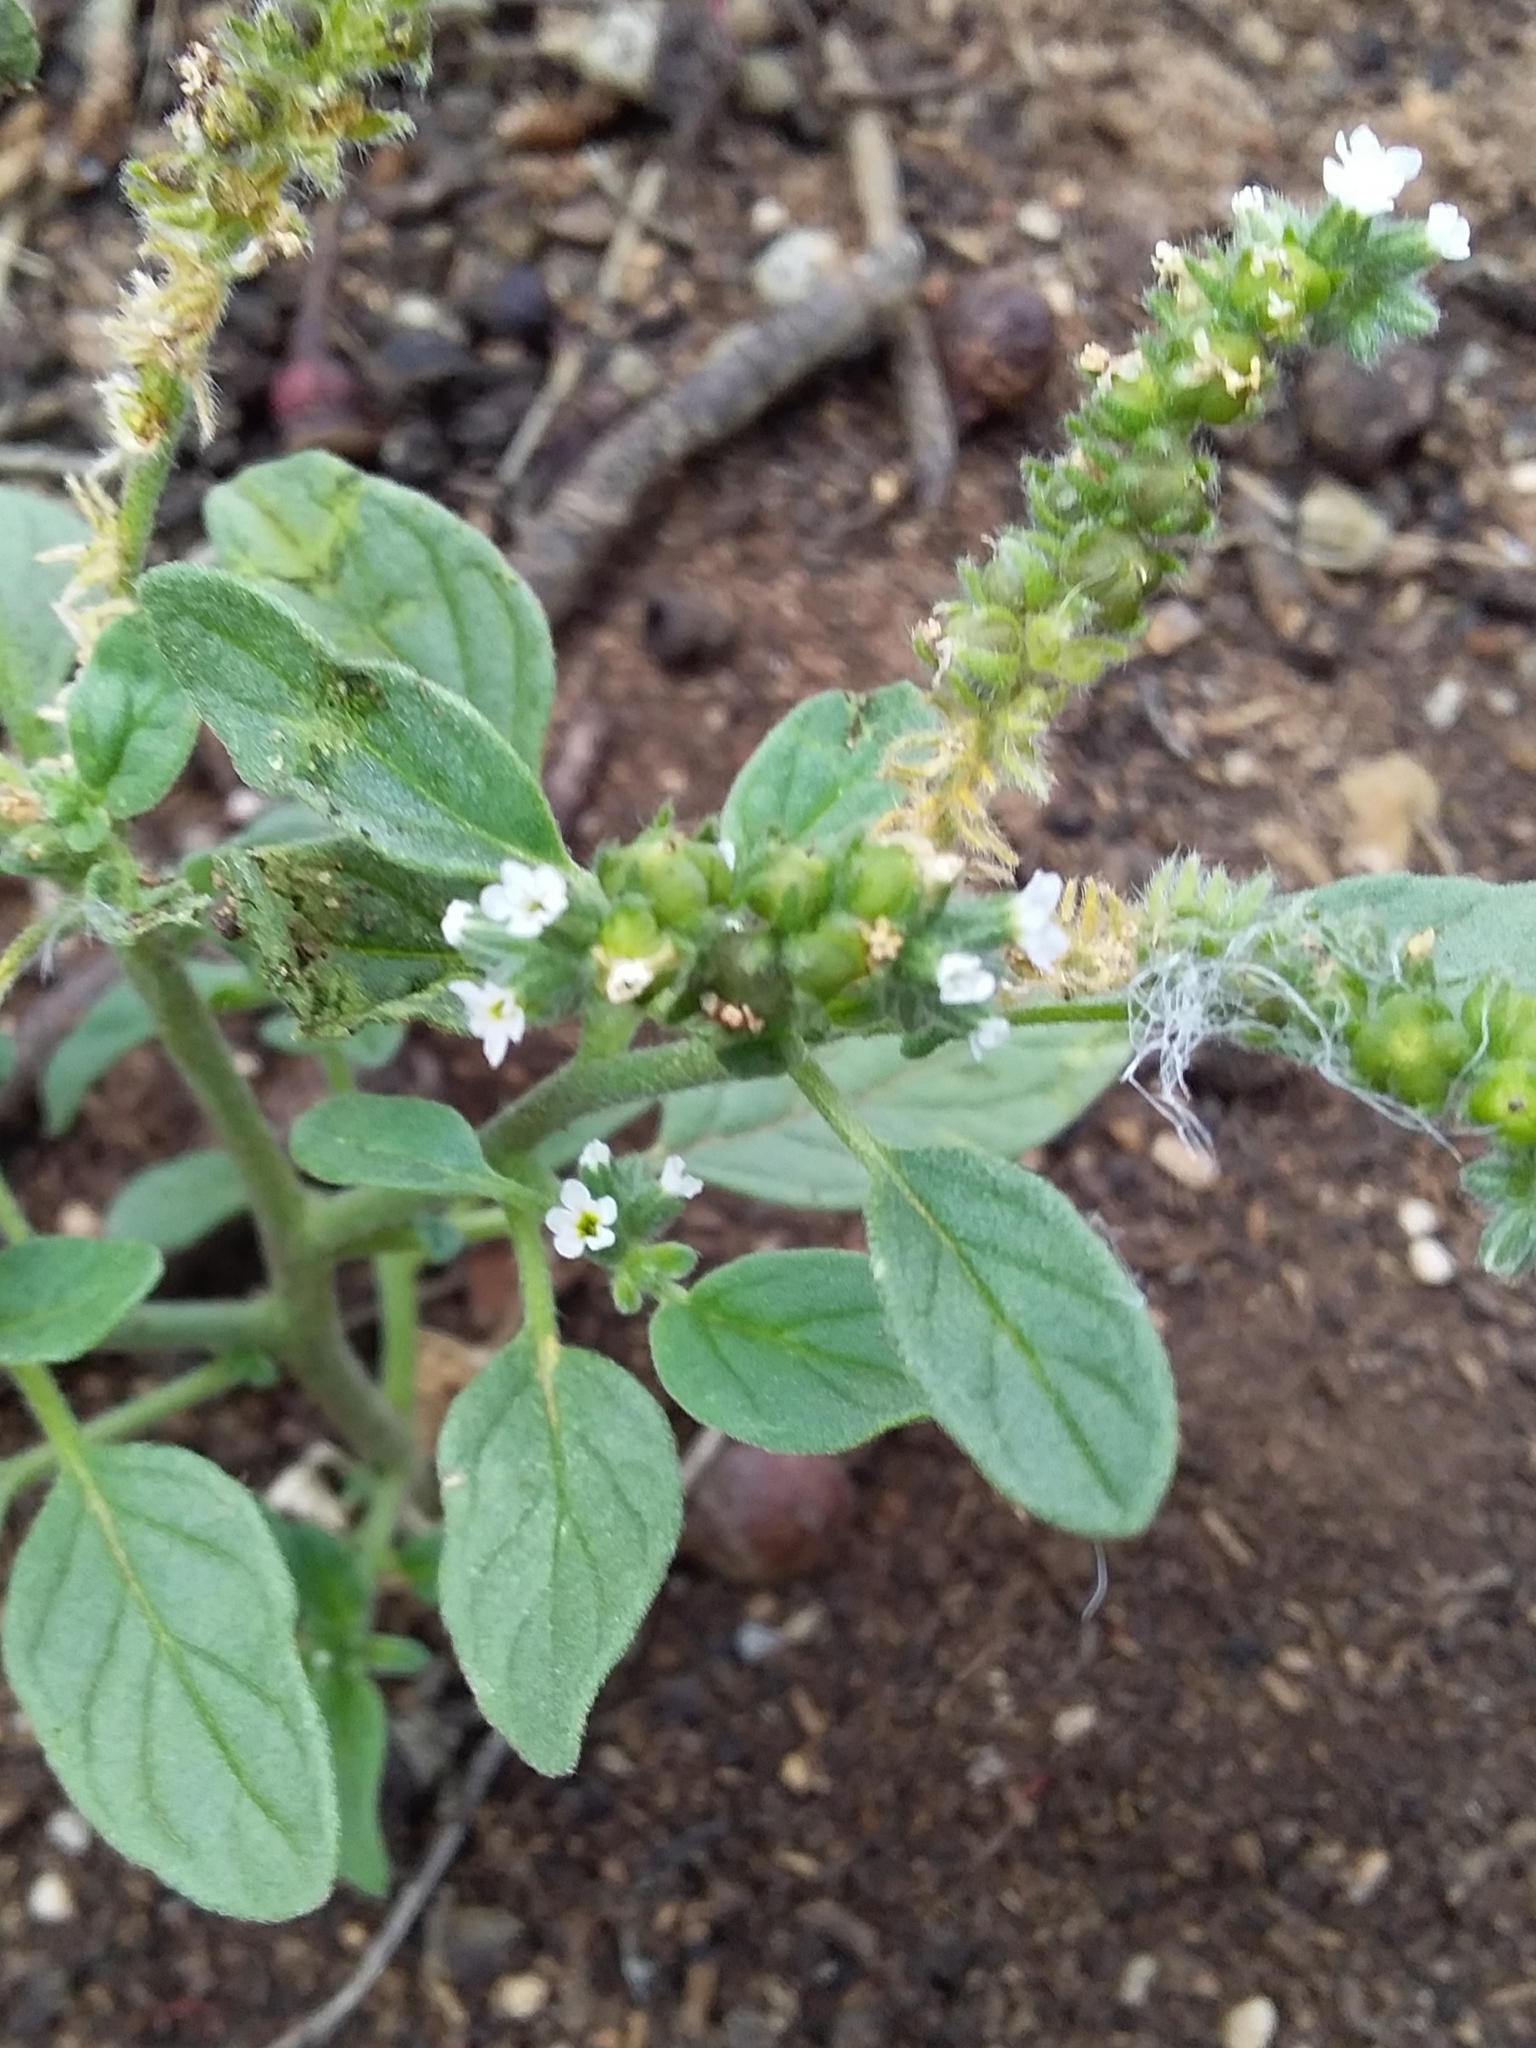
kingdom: Plantae
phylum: Tracheophyta
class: Magnoliopsida
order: Boraginales
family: Heliotropiaceae
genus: Heliotropium
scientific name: Heliotropium europaeum
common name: European heliotrope
